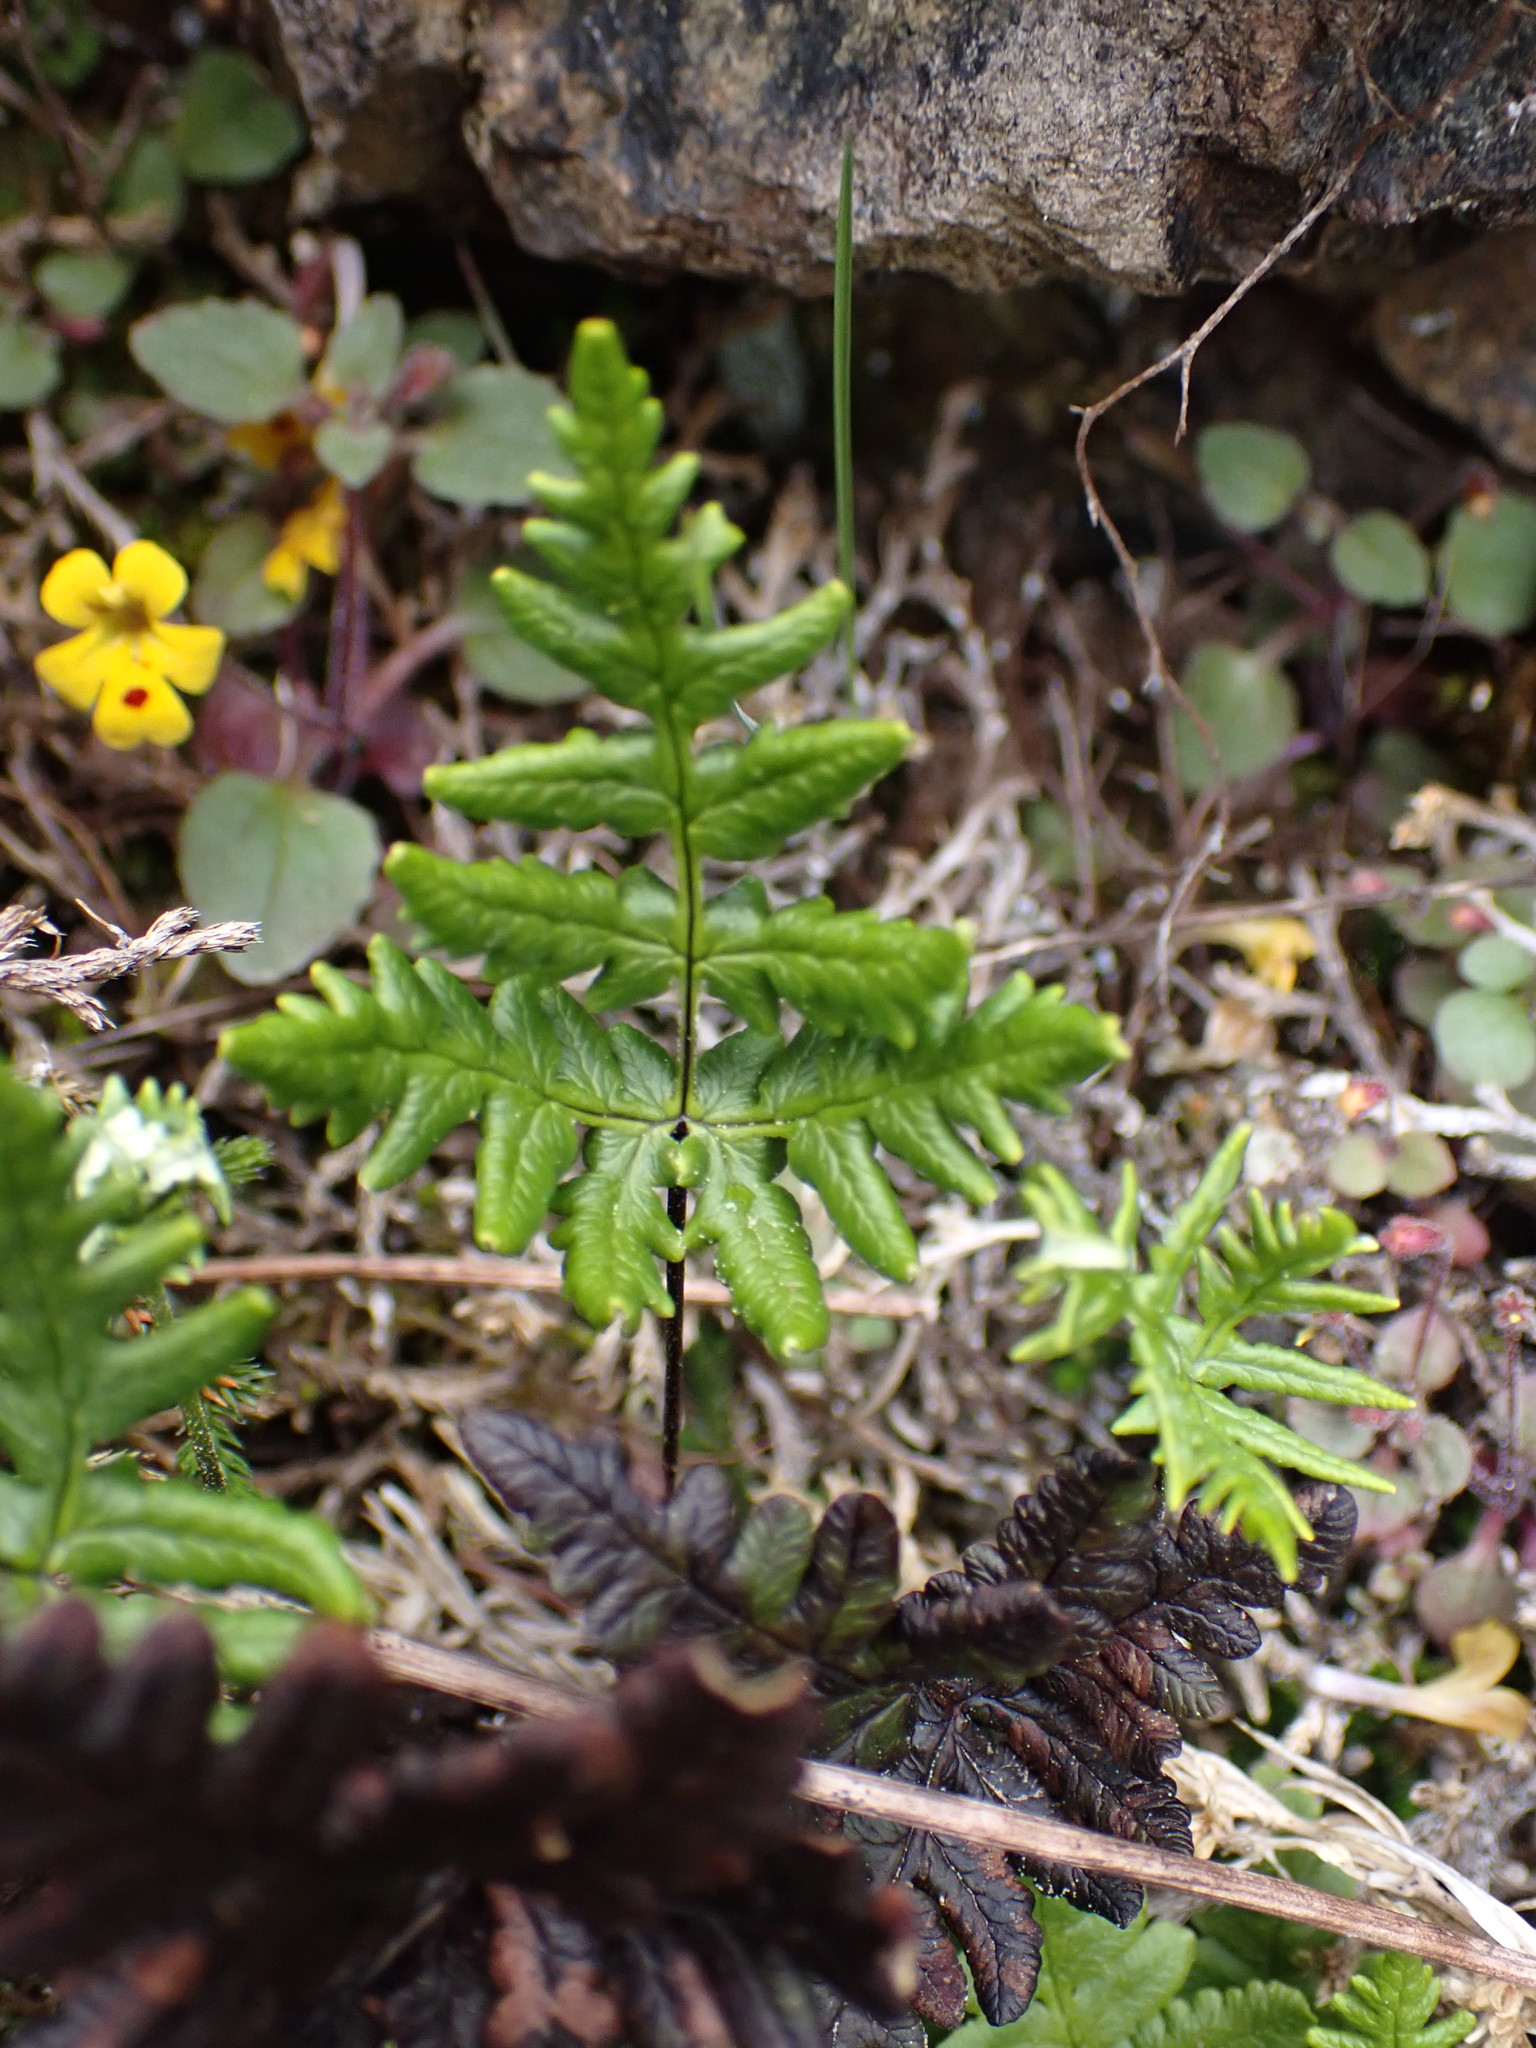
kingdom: Plantae
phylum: Tracheophyta
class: Polypodiopsida
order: Polypodiales
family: Pteridaceae
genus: Pentagramma
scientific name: Pentagramma triangularis
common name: Gold fern
